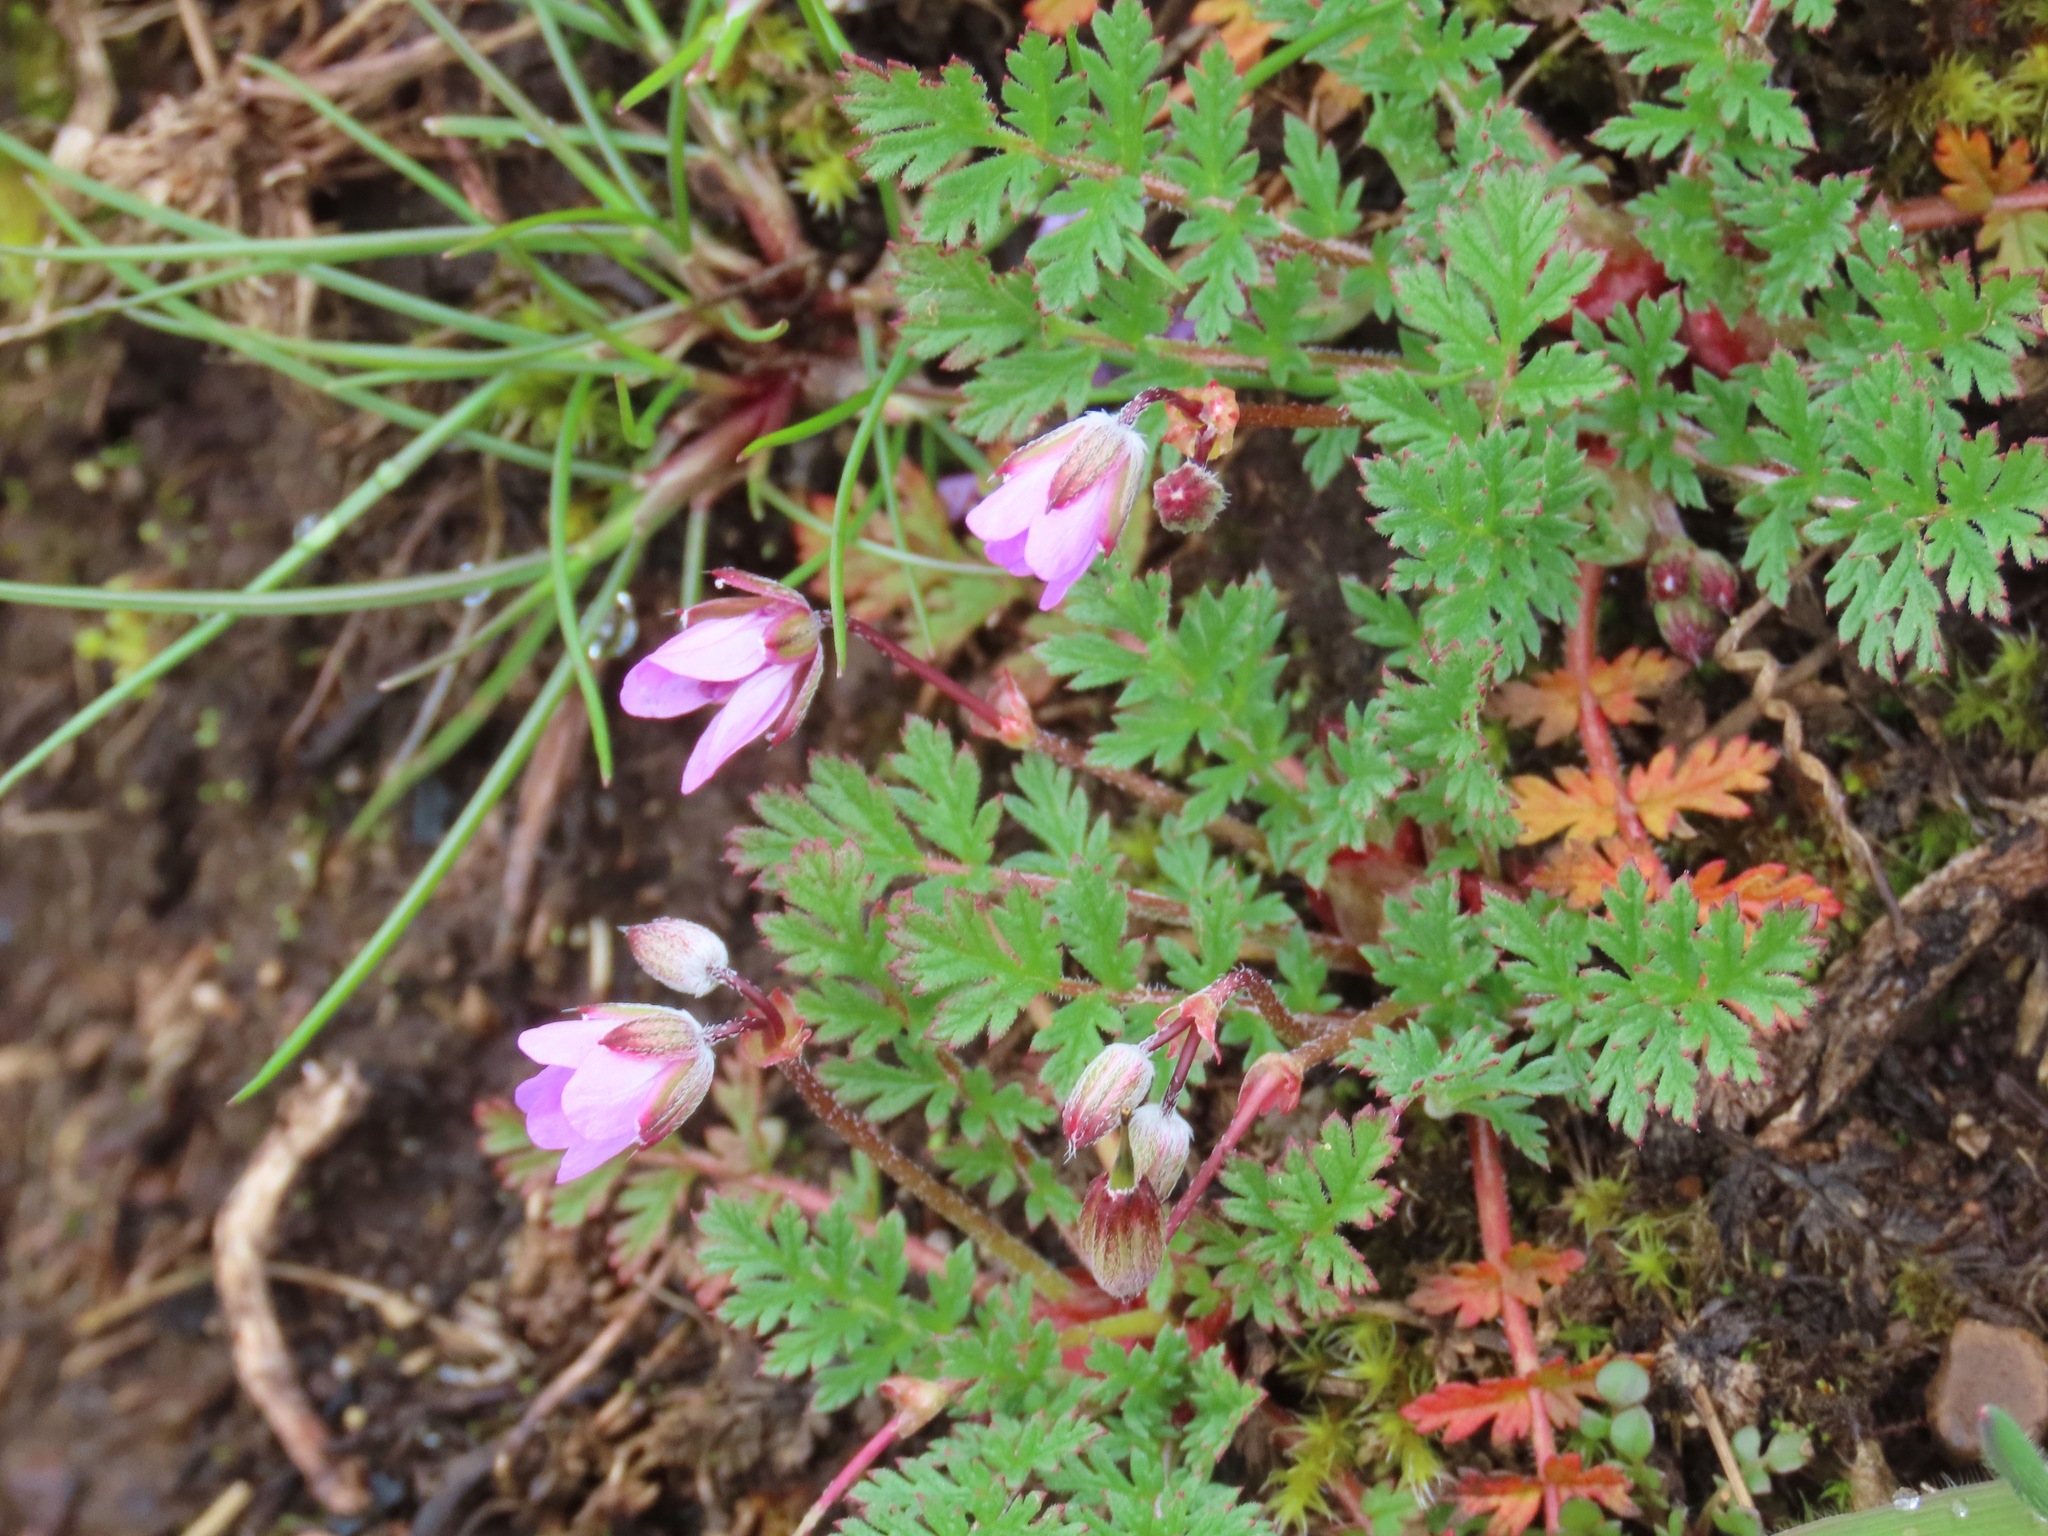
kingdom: Plantae
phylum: Tracheophyta
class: Magnoliopsida
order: Geraniales
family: Geraniaceae
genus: Erodium
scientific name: Erodium cicutarium
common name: Common stork's-bill
